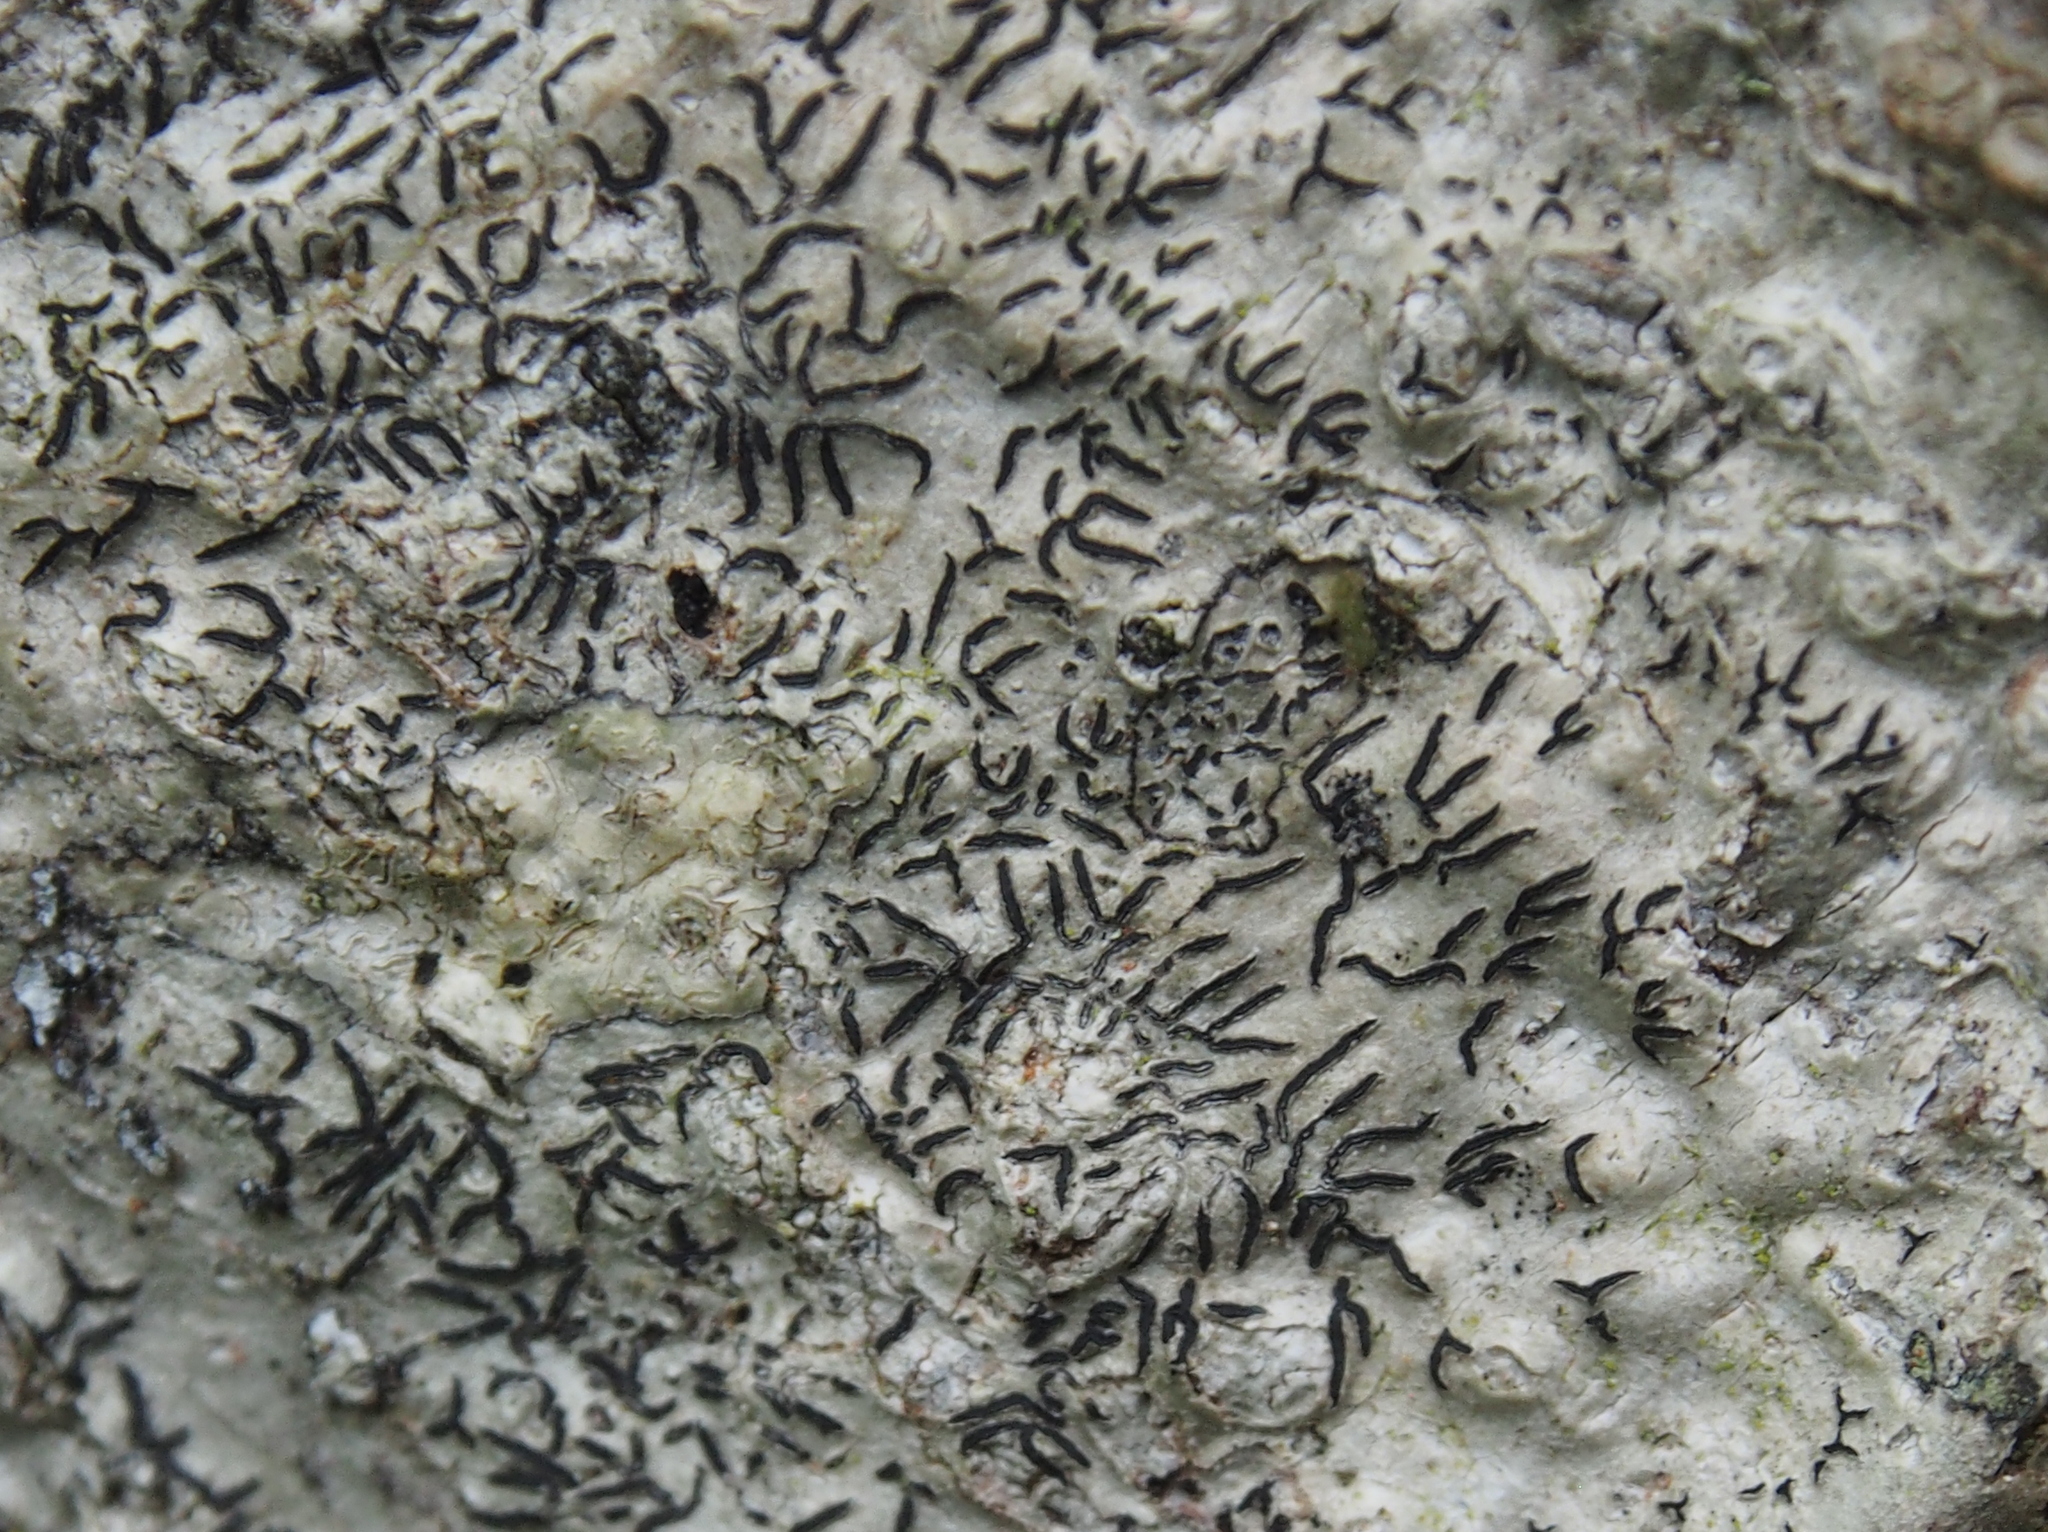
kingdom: Fungi
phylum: Ascomycota
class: Lecanoromycetes
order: Ostropales
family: Graphidaceae
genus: Graphis
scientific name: Graphis scripta
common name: Script lichen
